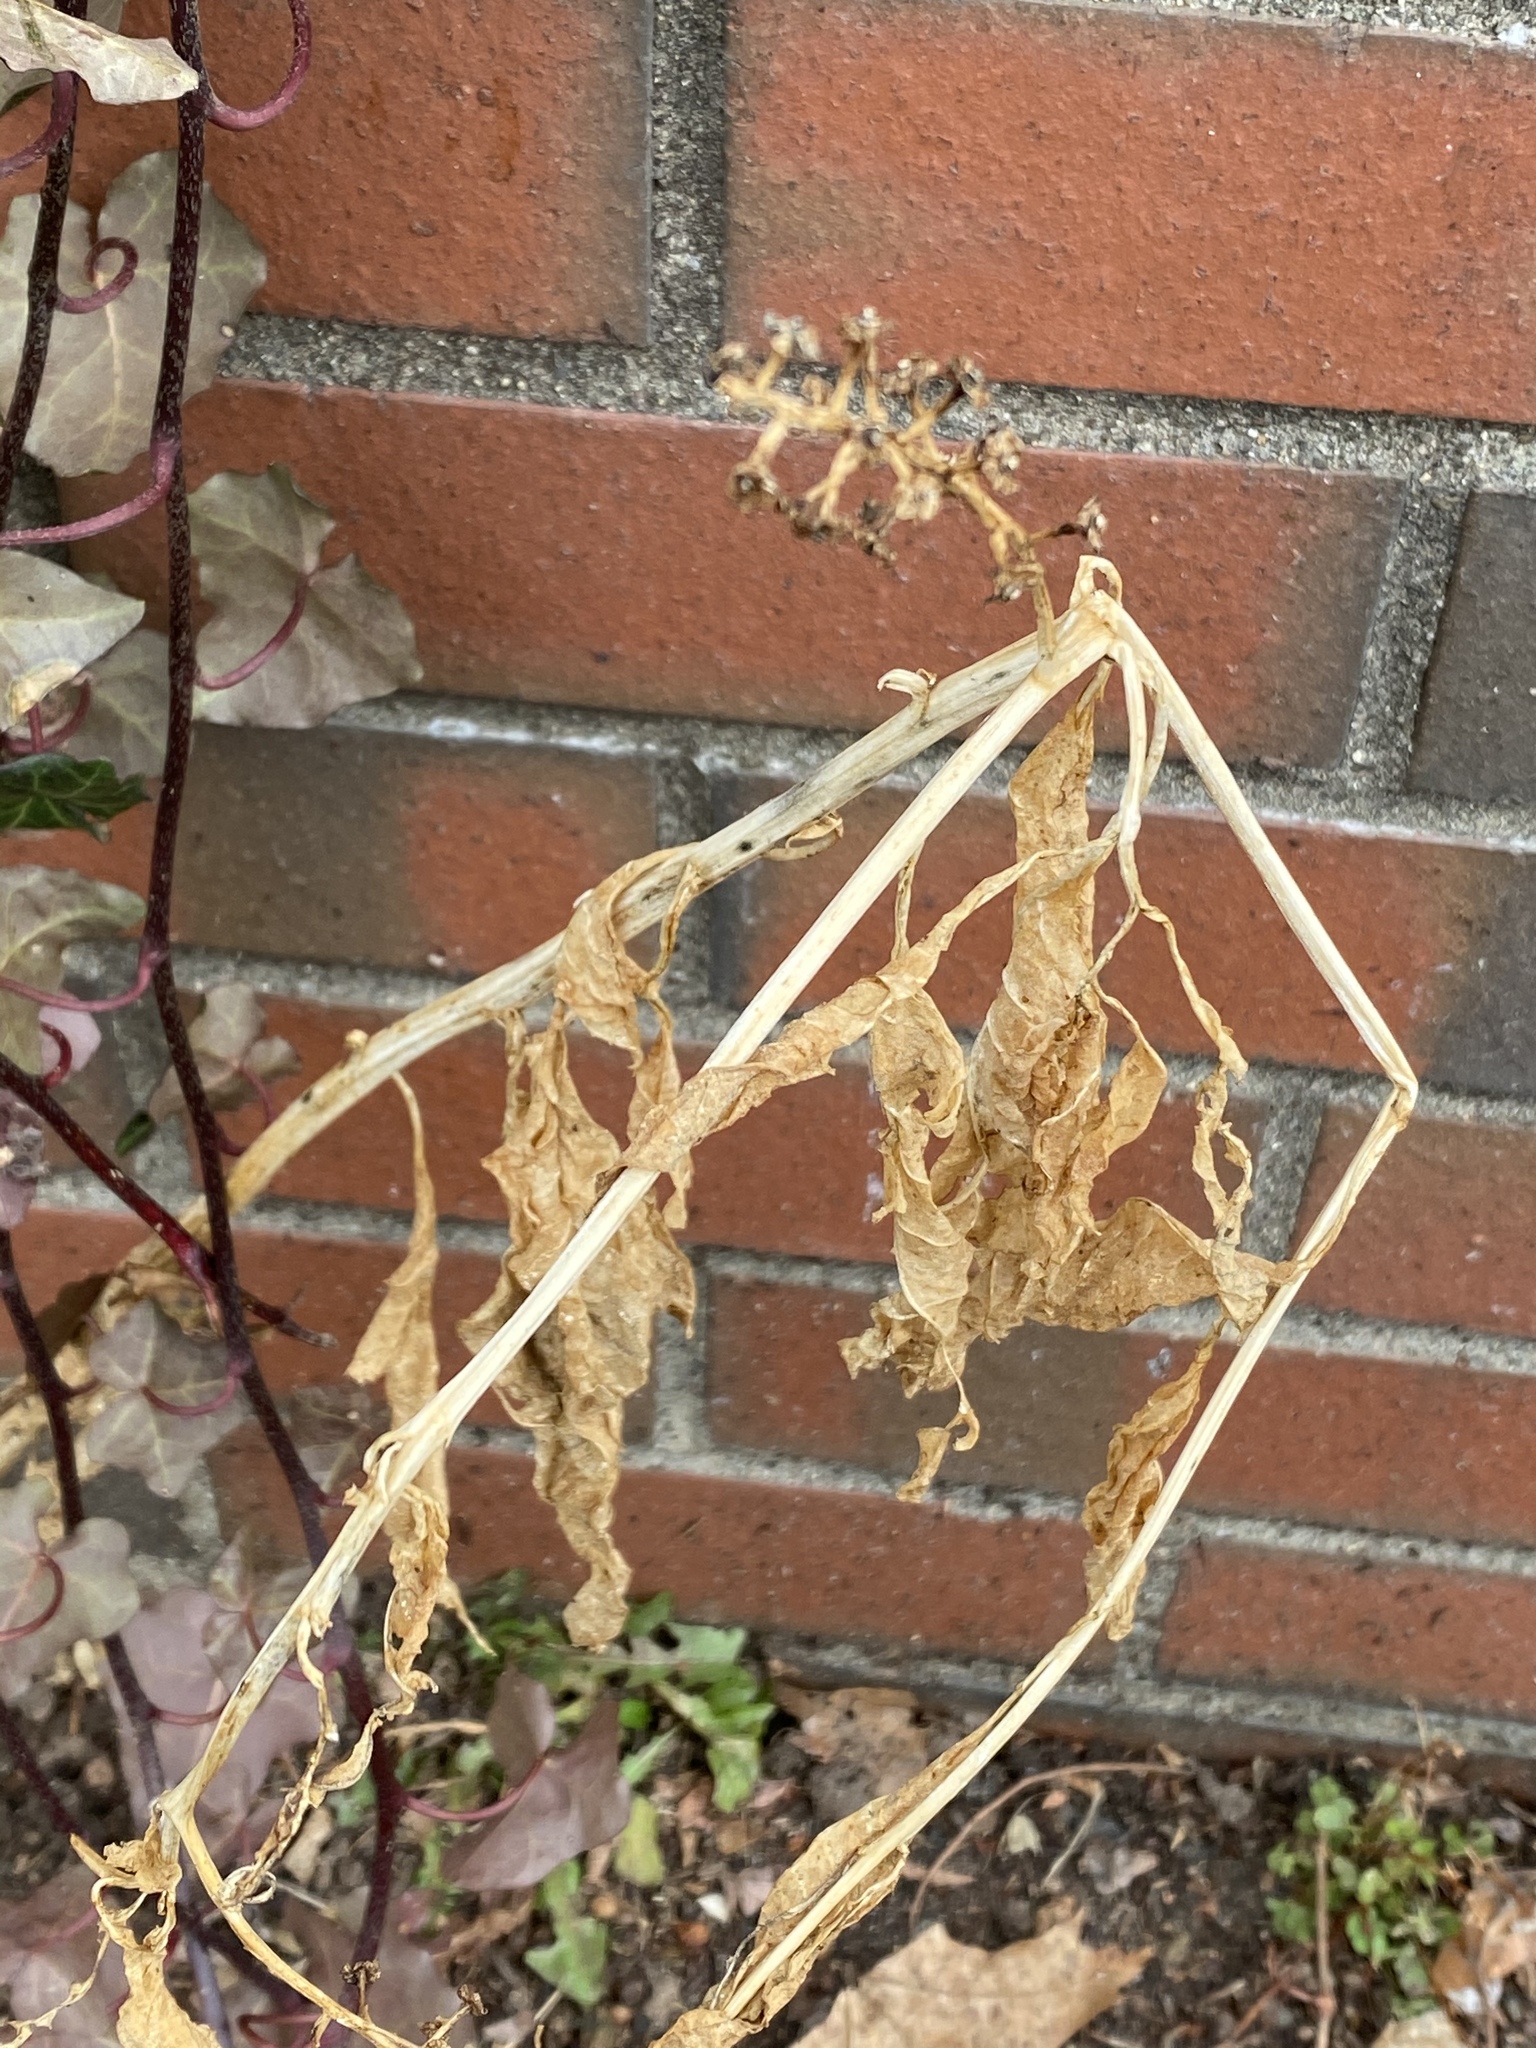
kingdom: Plantae
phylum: Tracheophyta
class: Magnoliopsida
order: Caryophyllales
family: Phytolaccaceae
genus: Phytolacca
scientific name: Phytolacca americana
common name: American pokeweed
